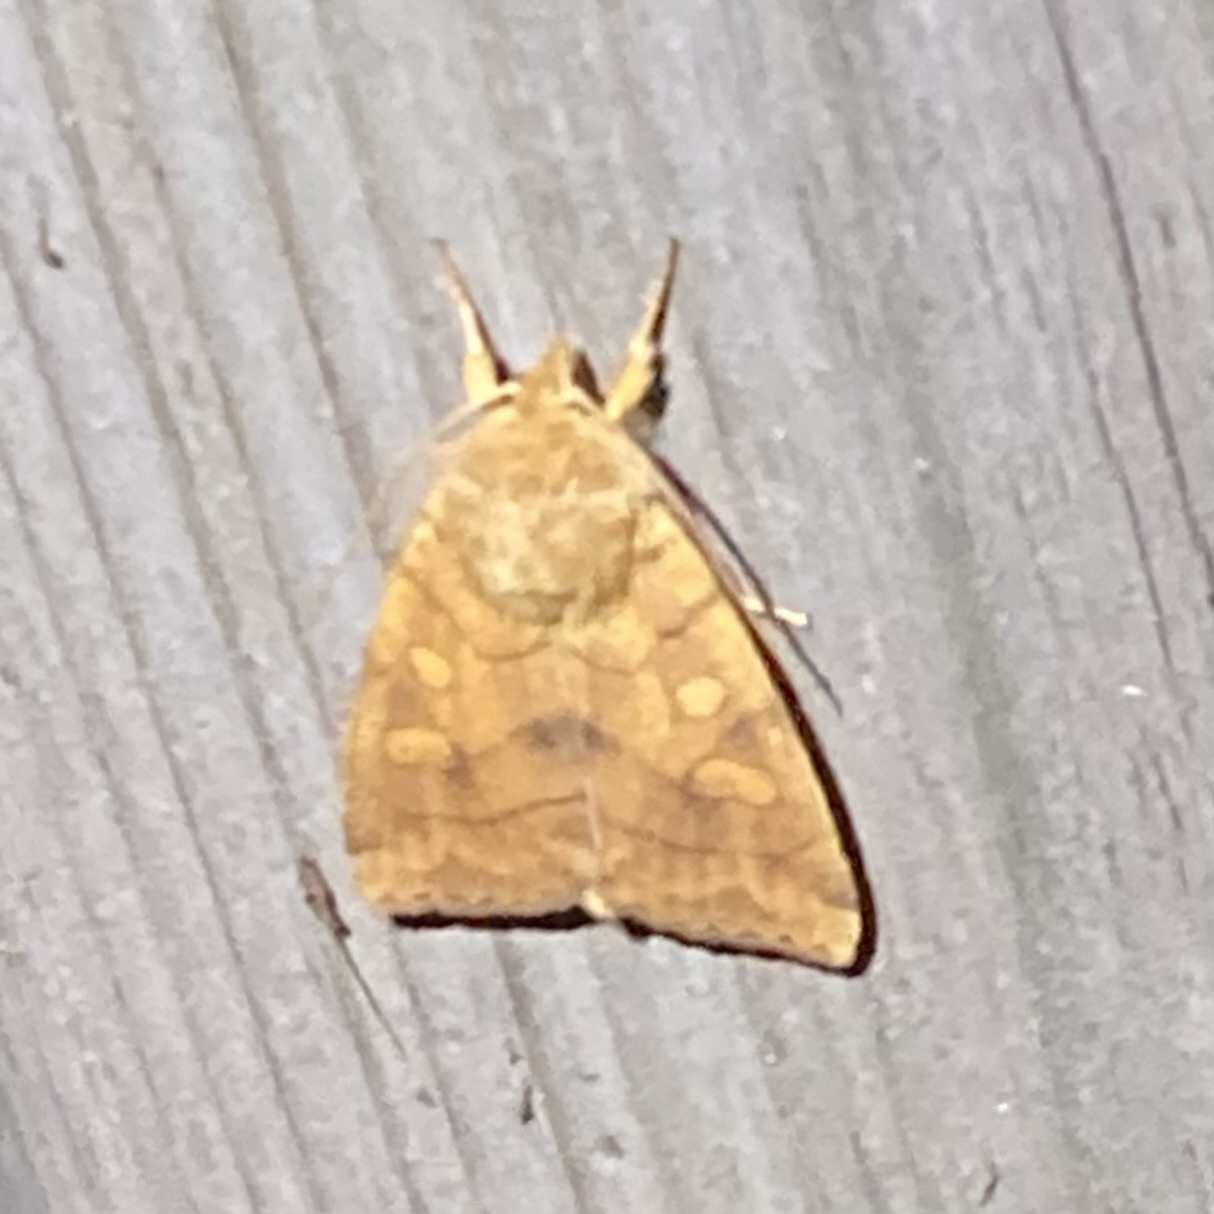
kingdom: Animalia
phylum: Arthropoda
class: Insecta
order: Lepidoptera
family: Noctuidae
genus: Enargia
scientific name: Enargia decolor
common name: Aspen twoleaf tier moth
